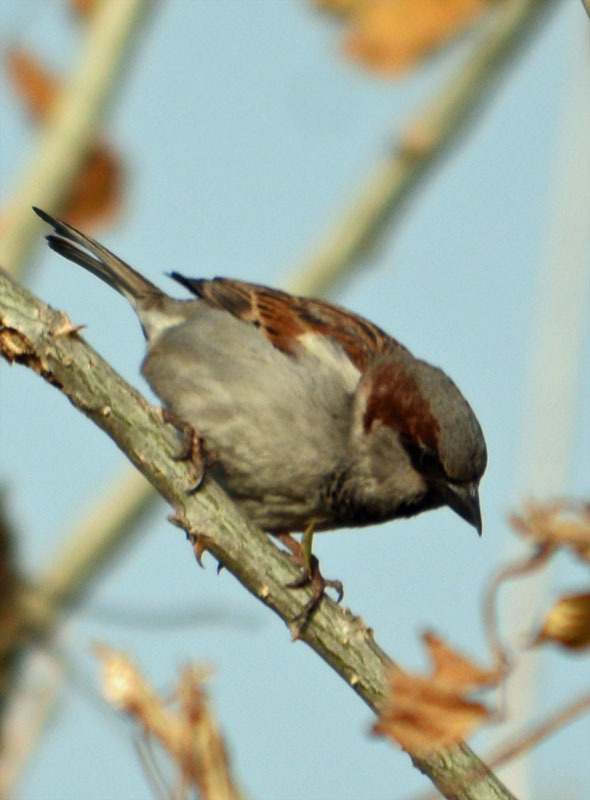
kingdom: Animalia
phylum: Chordata
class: Aves
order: Passeriformes
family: Passeridae
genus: Passer
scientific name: Passer domesticus
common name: House sparrow
